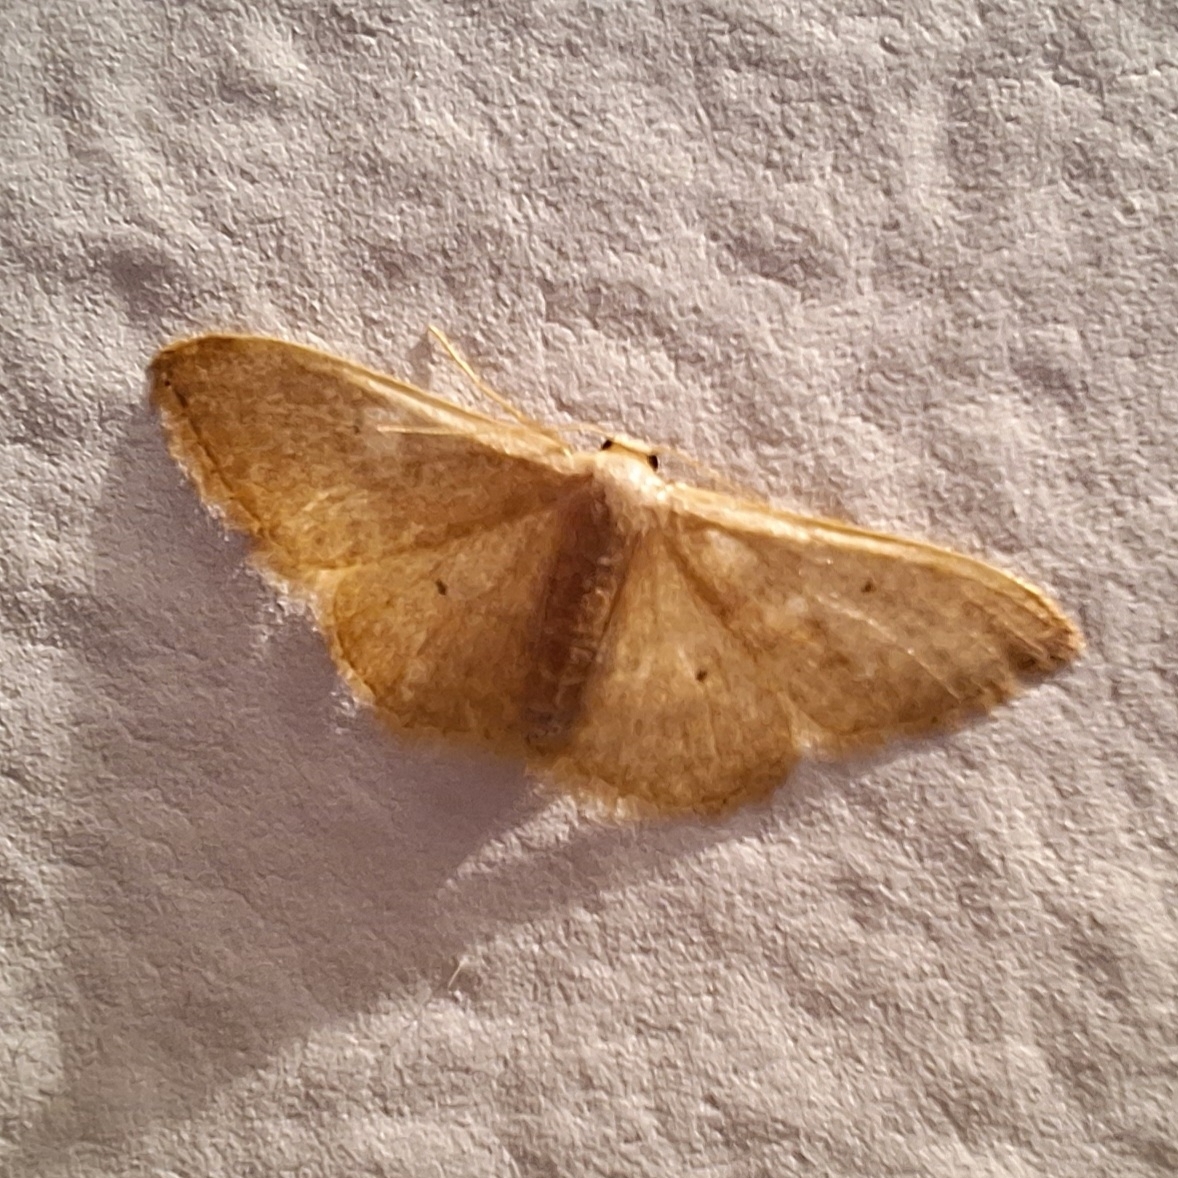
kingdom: Animalia
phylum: Arthropoda
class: Insecta
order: Lepidoptera
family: Geometridae
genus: Idaea
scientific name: Idaea distinctaria
